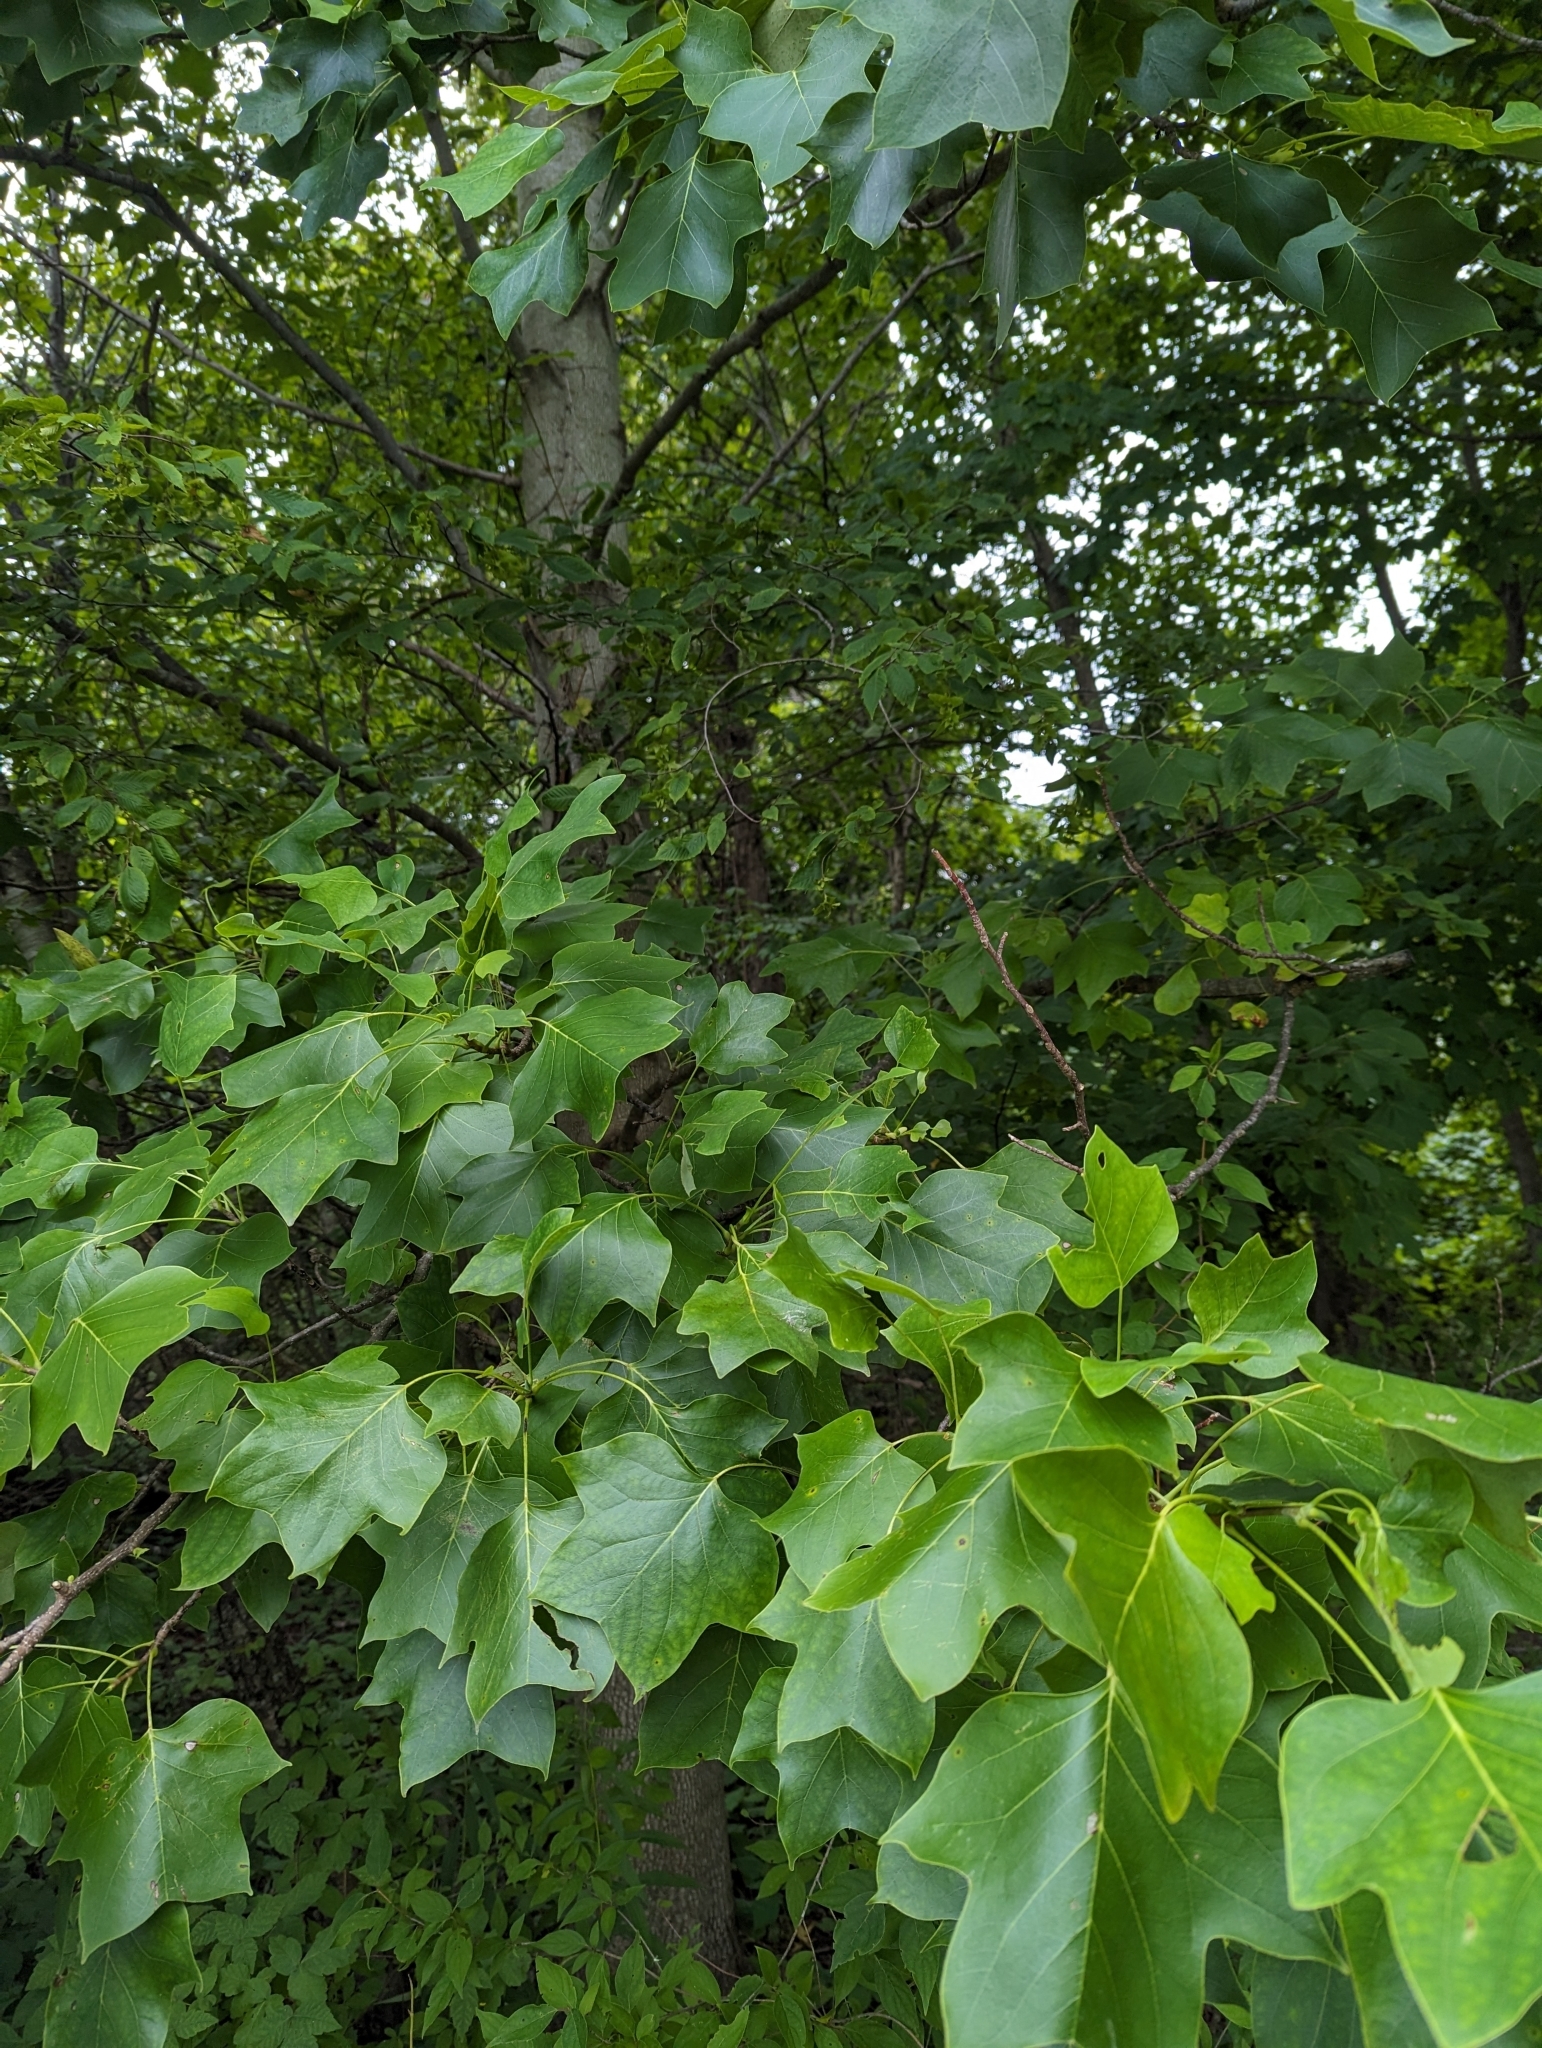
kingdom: Plantae
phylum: Tracheophyta
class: Magnoliopsida
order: Magnoliales
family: Magnoliaceae
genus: Liriodendron
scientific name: Liriodendron tulipifera
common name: Tulip tree
